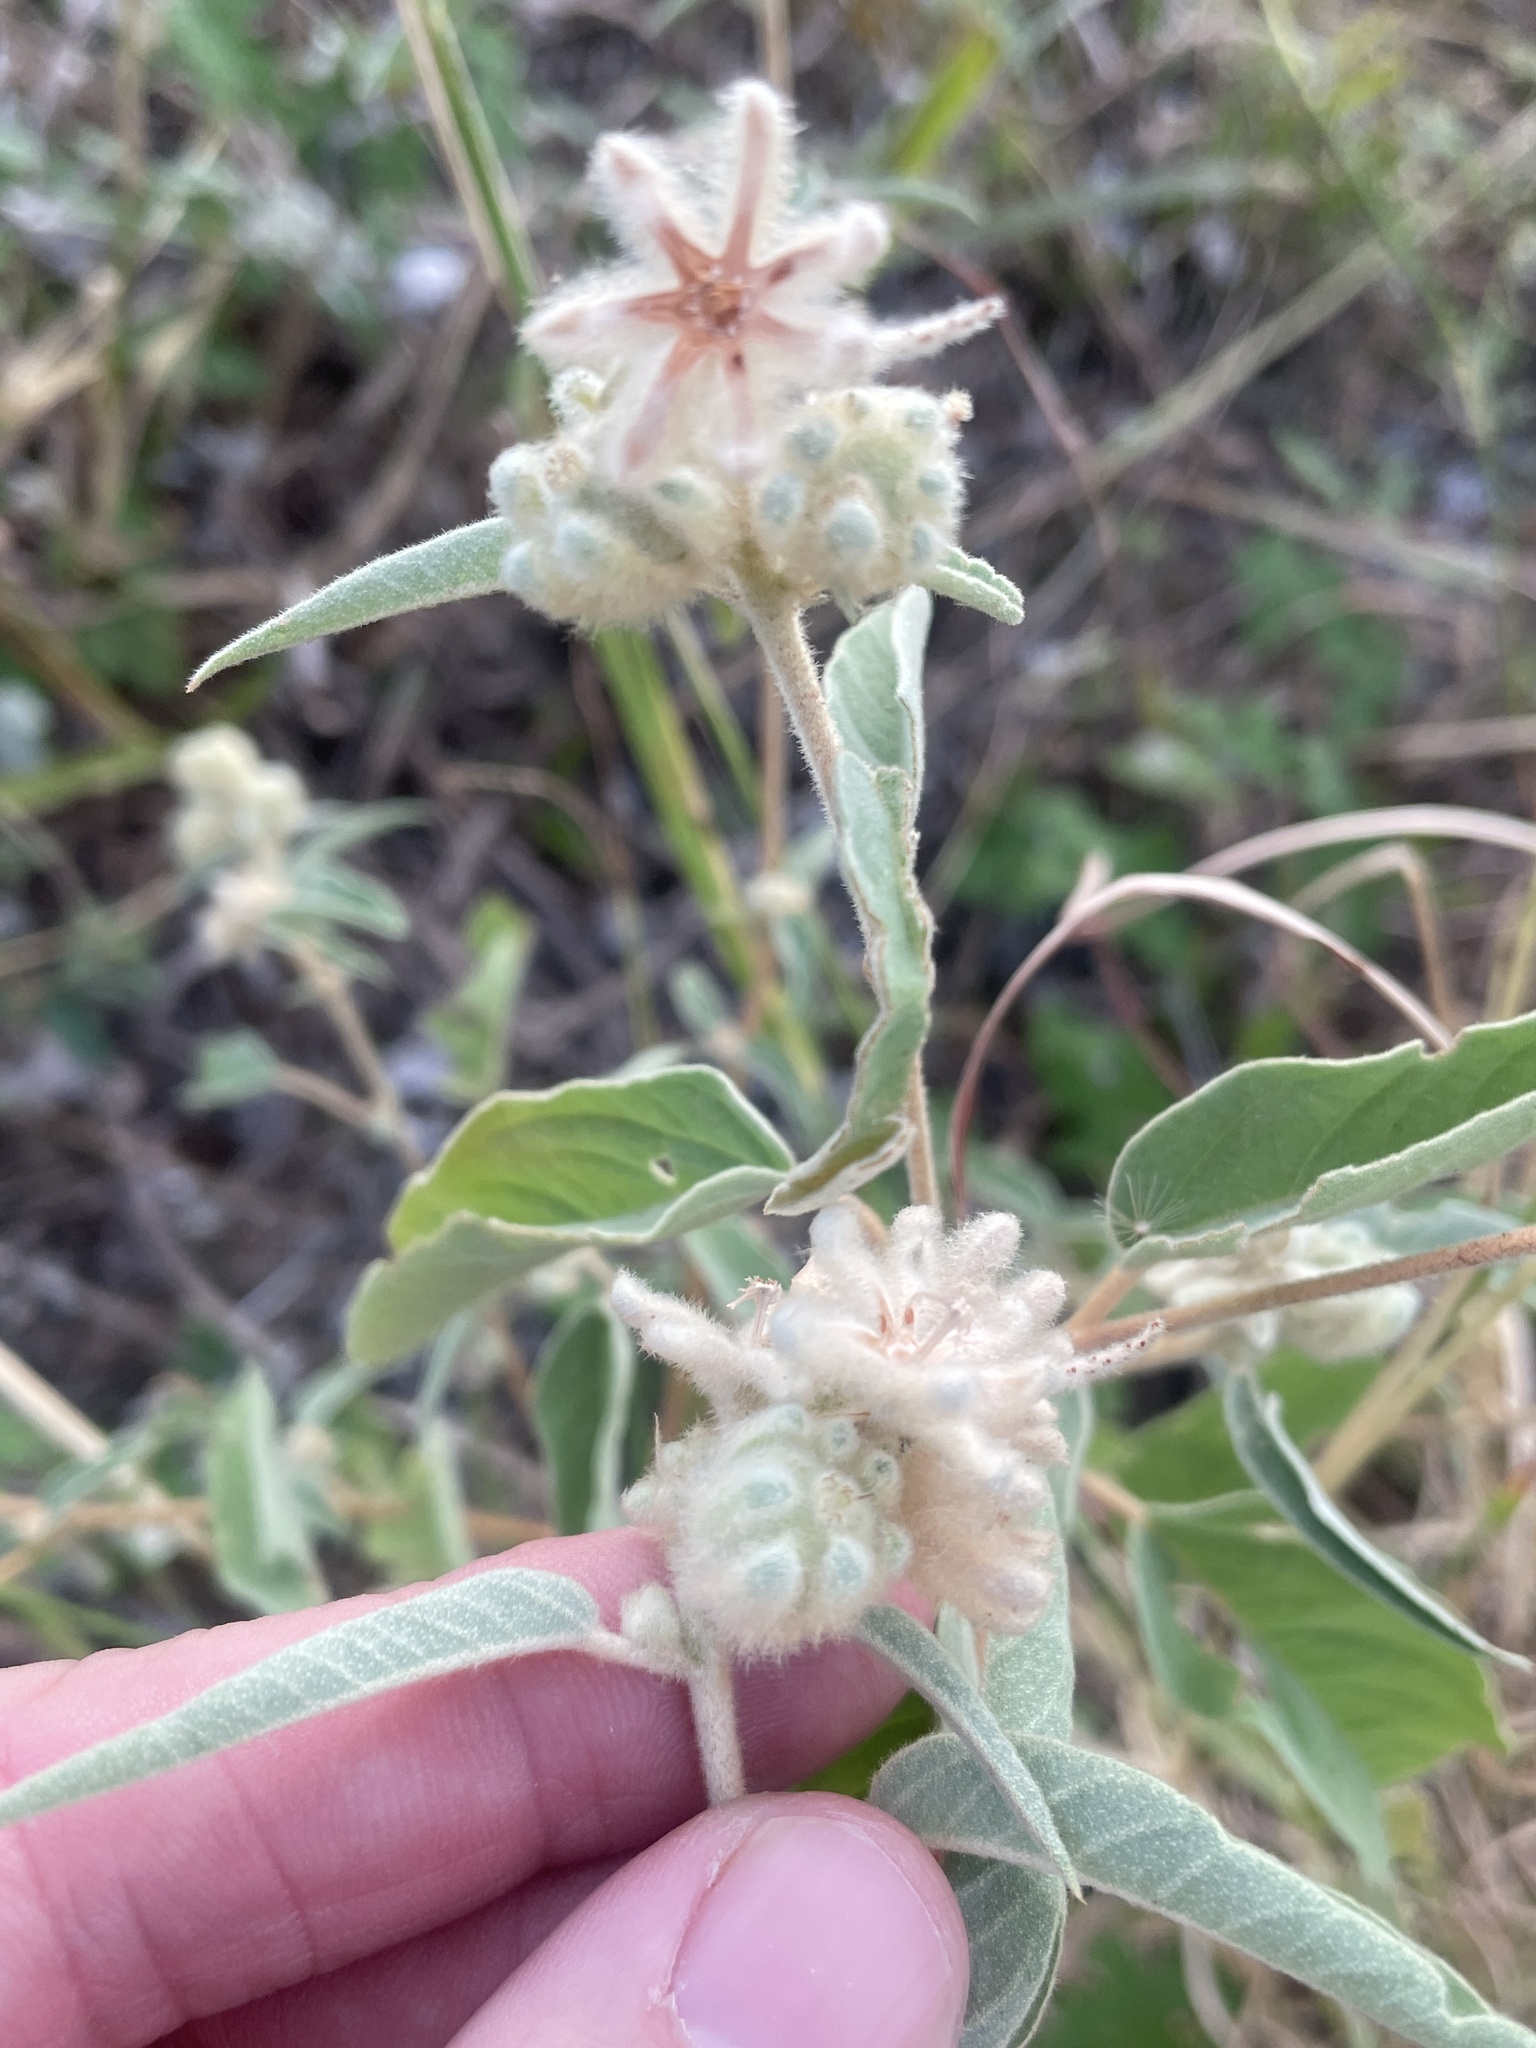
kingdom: Plantae
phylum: Tracheophyta
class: Magnoliopsida
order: Malpighiales
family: Euphorbiaceae
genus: Croton
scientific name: Croton lindheimeri
